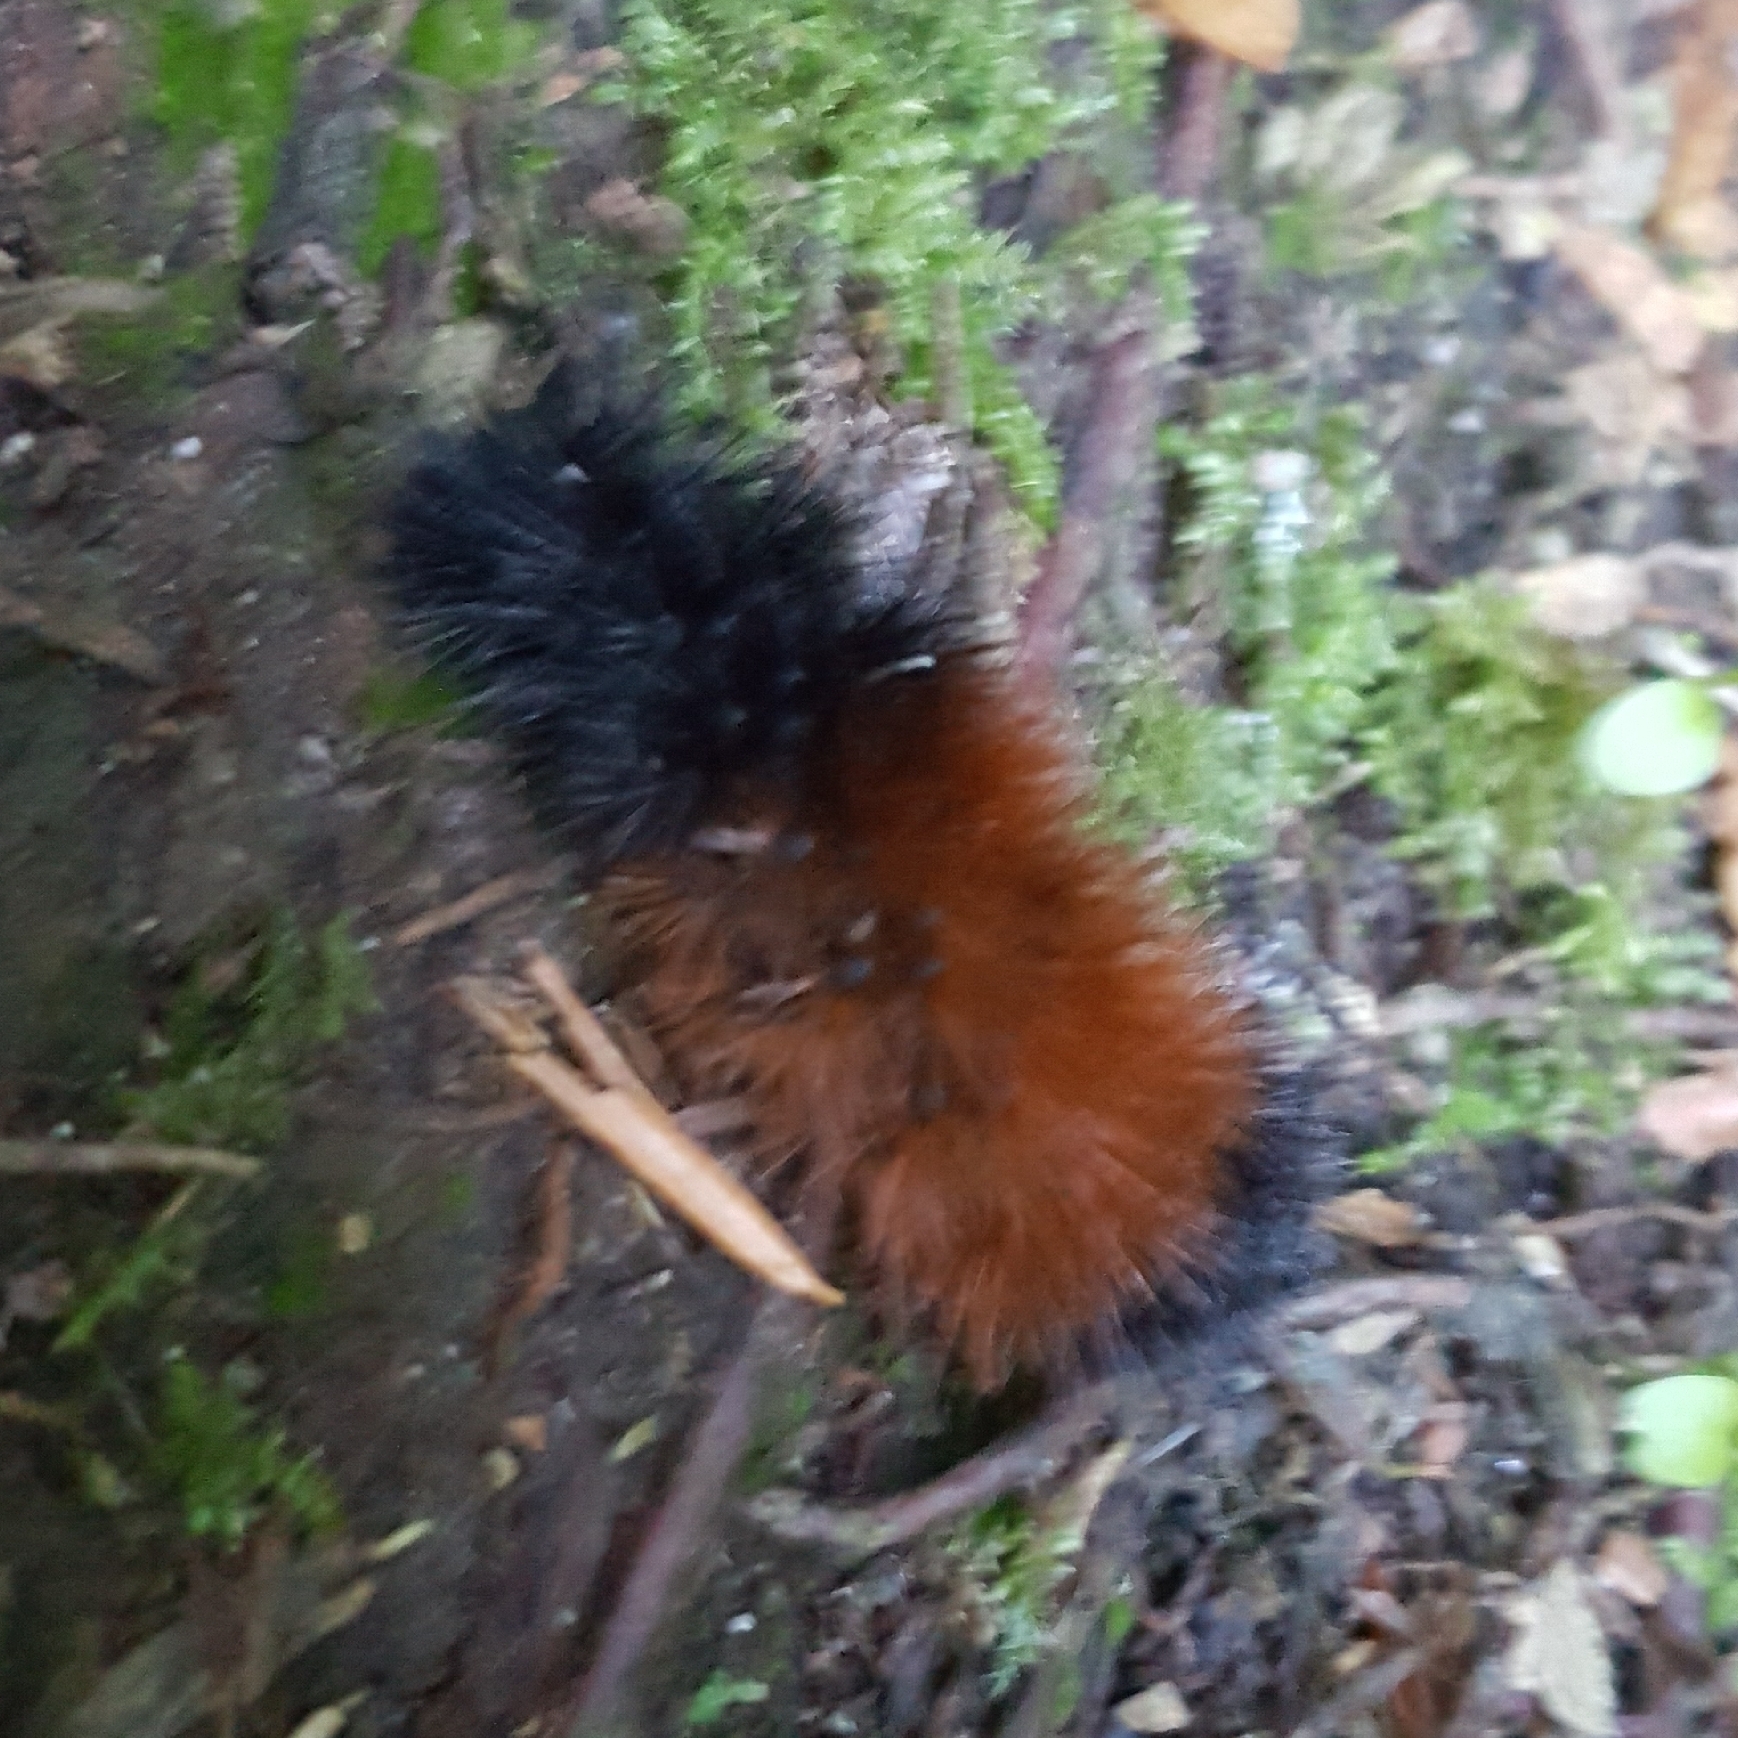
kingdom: Animalia
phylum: Arthropoda
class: Insecta
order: Lepidoptera
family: Erebidae
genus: Pyrrharctia
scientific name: Pyrrharctia isabella
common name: Isabella tiger moth
